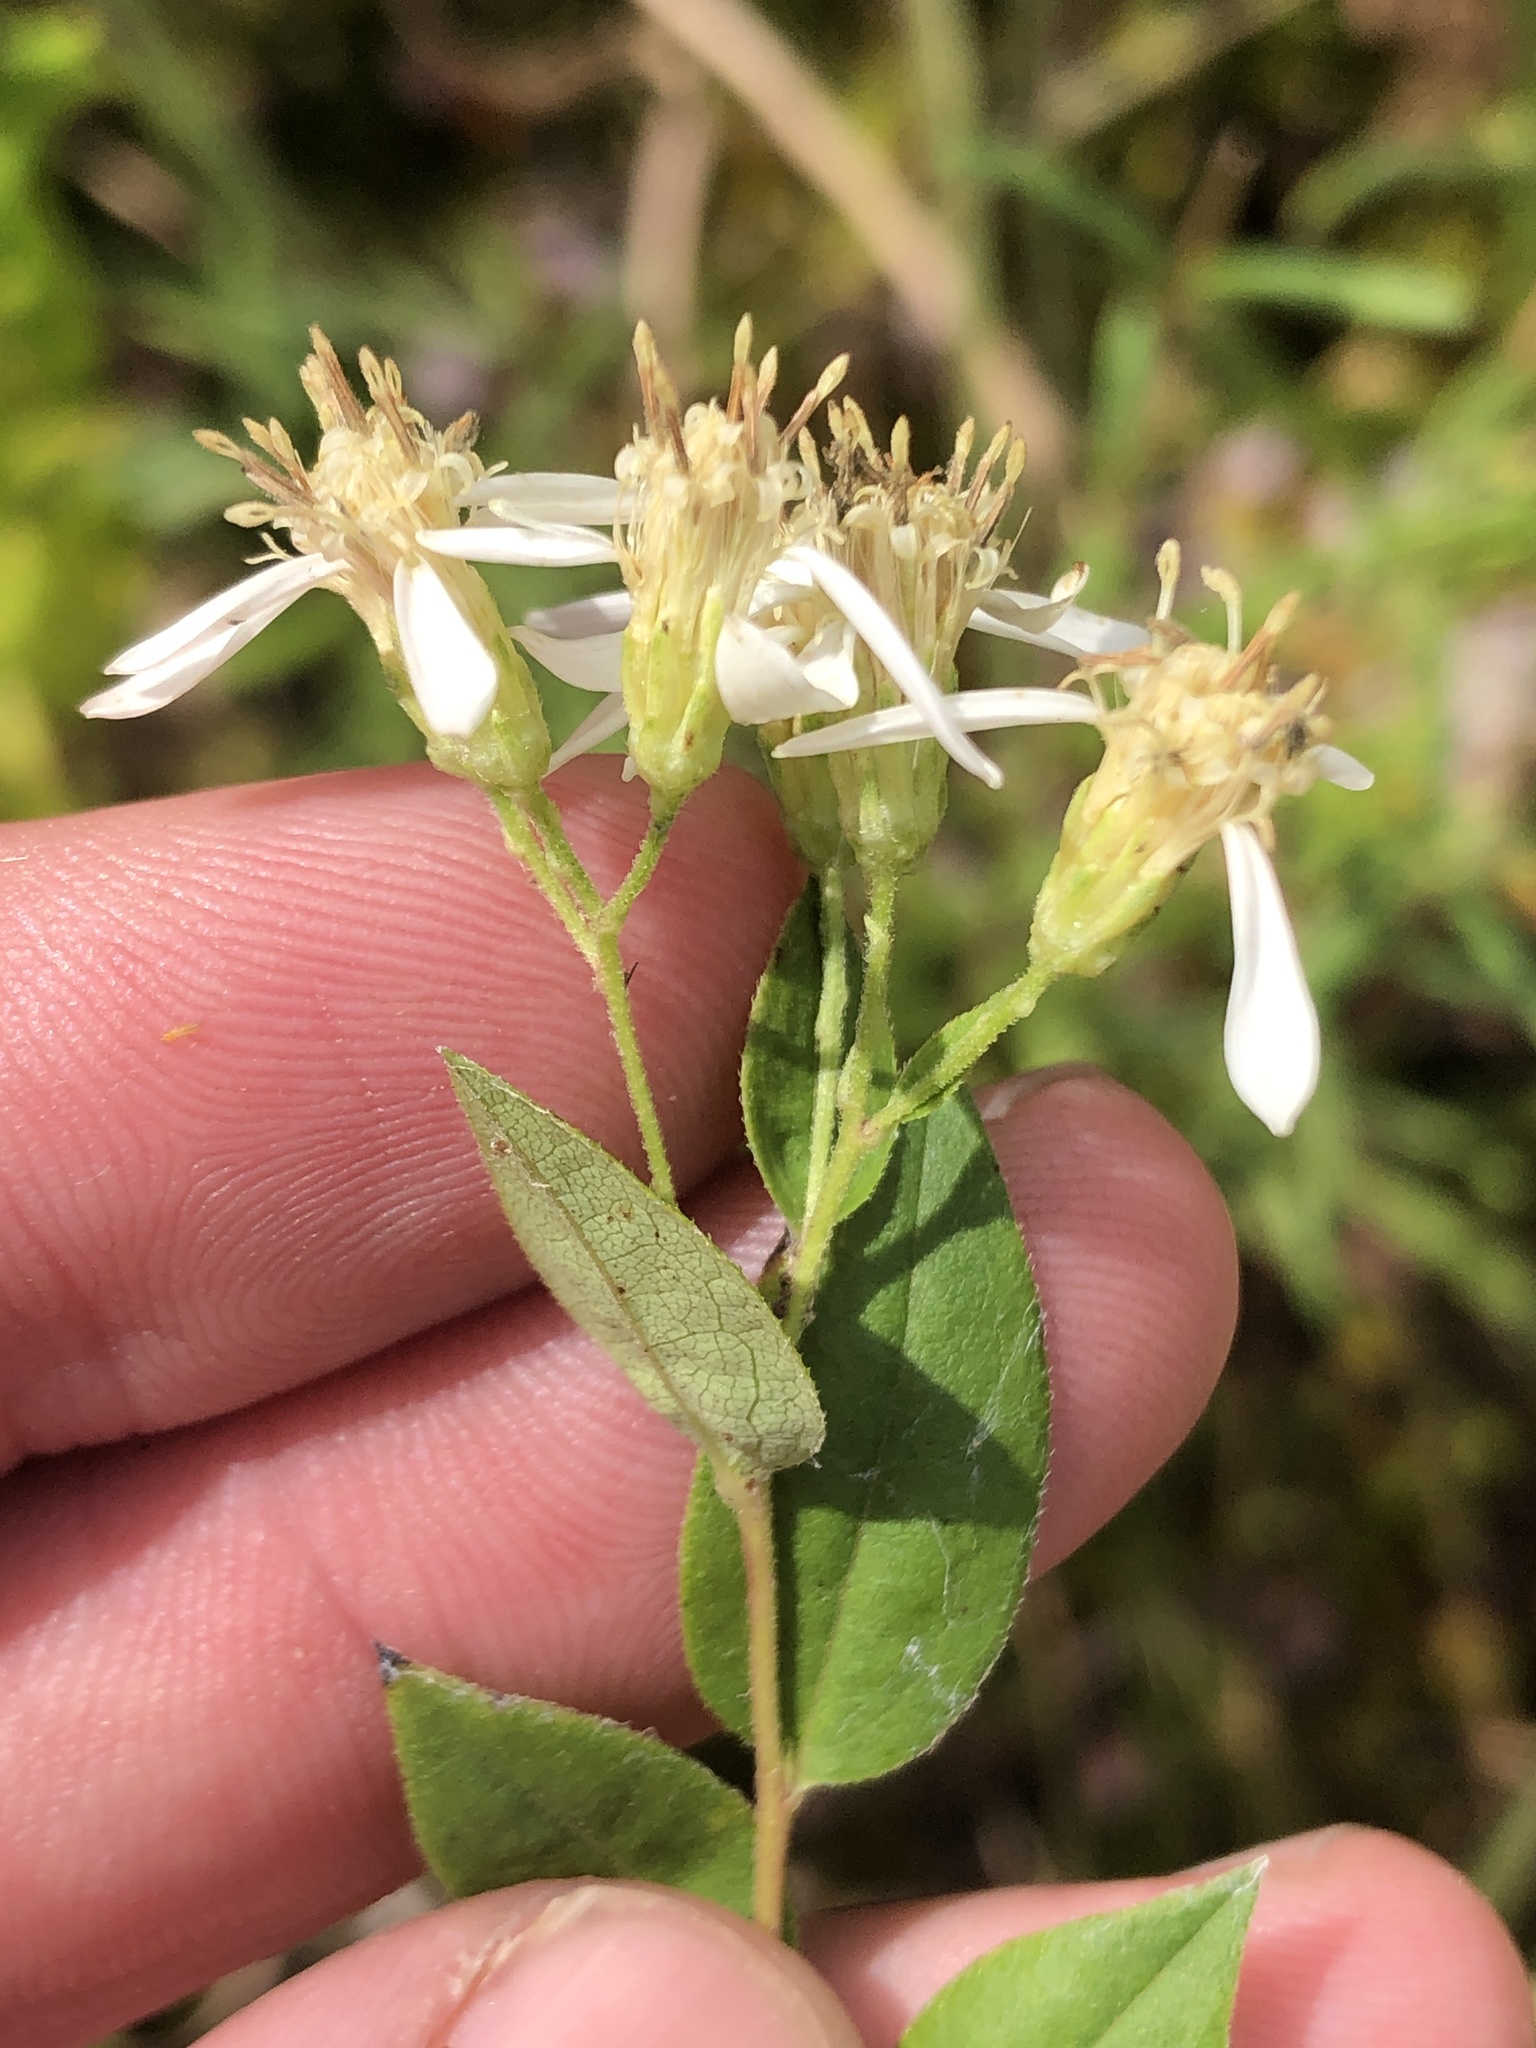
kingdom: Plantae
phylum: Tracheophyta
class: Magnoliopsida
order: Asterales
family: Asteraceae
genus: Doellingeria
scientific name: Doellingeria sericocarpoides
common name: Southern tall flat-top aster
